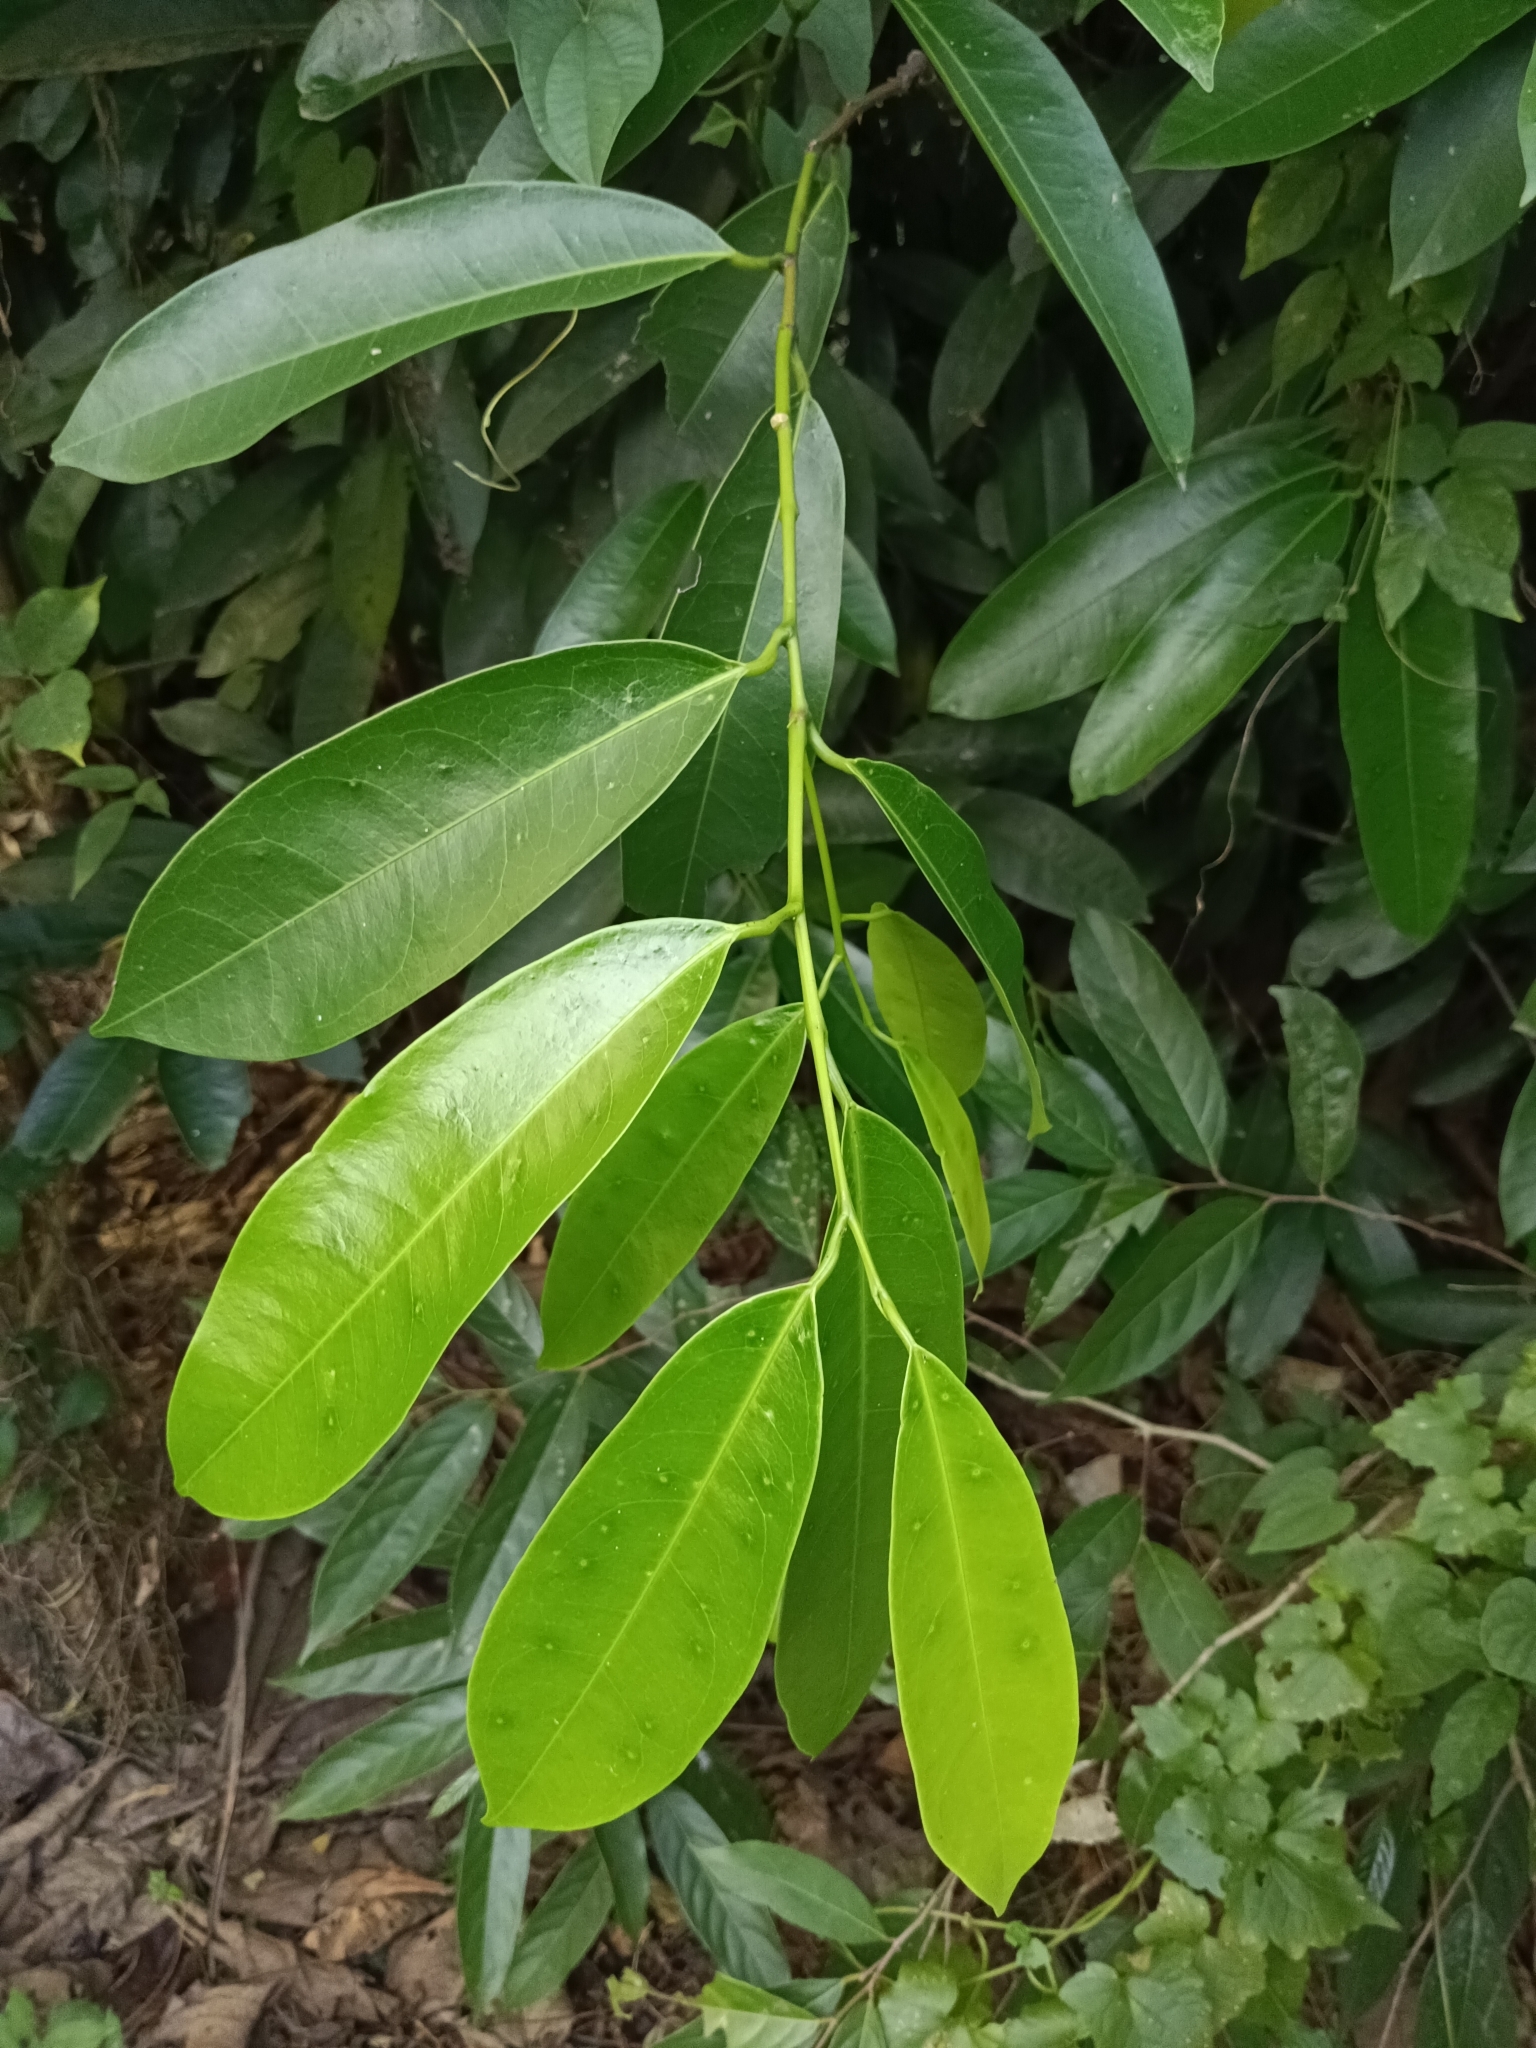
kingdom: Plantae
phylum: Tracheophyta
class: Magnoliopsida
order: Sapindales
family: Simaroubaceae
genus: Samadera
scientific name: Samadera indica
